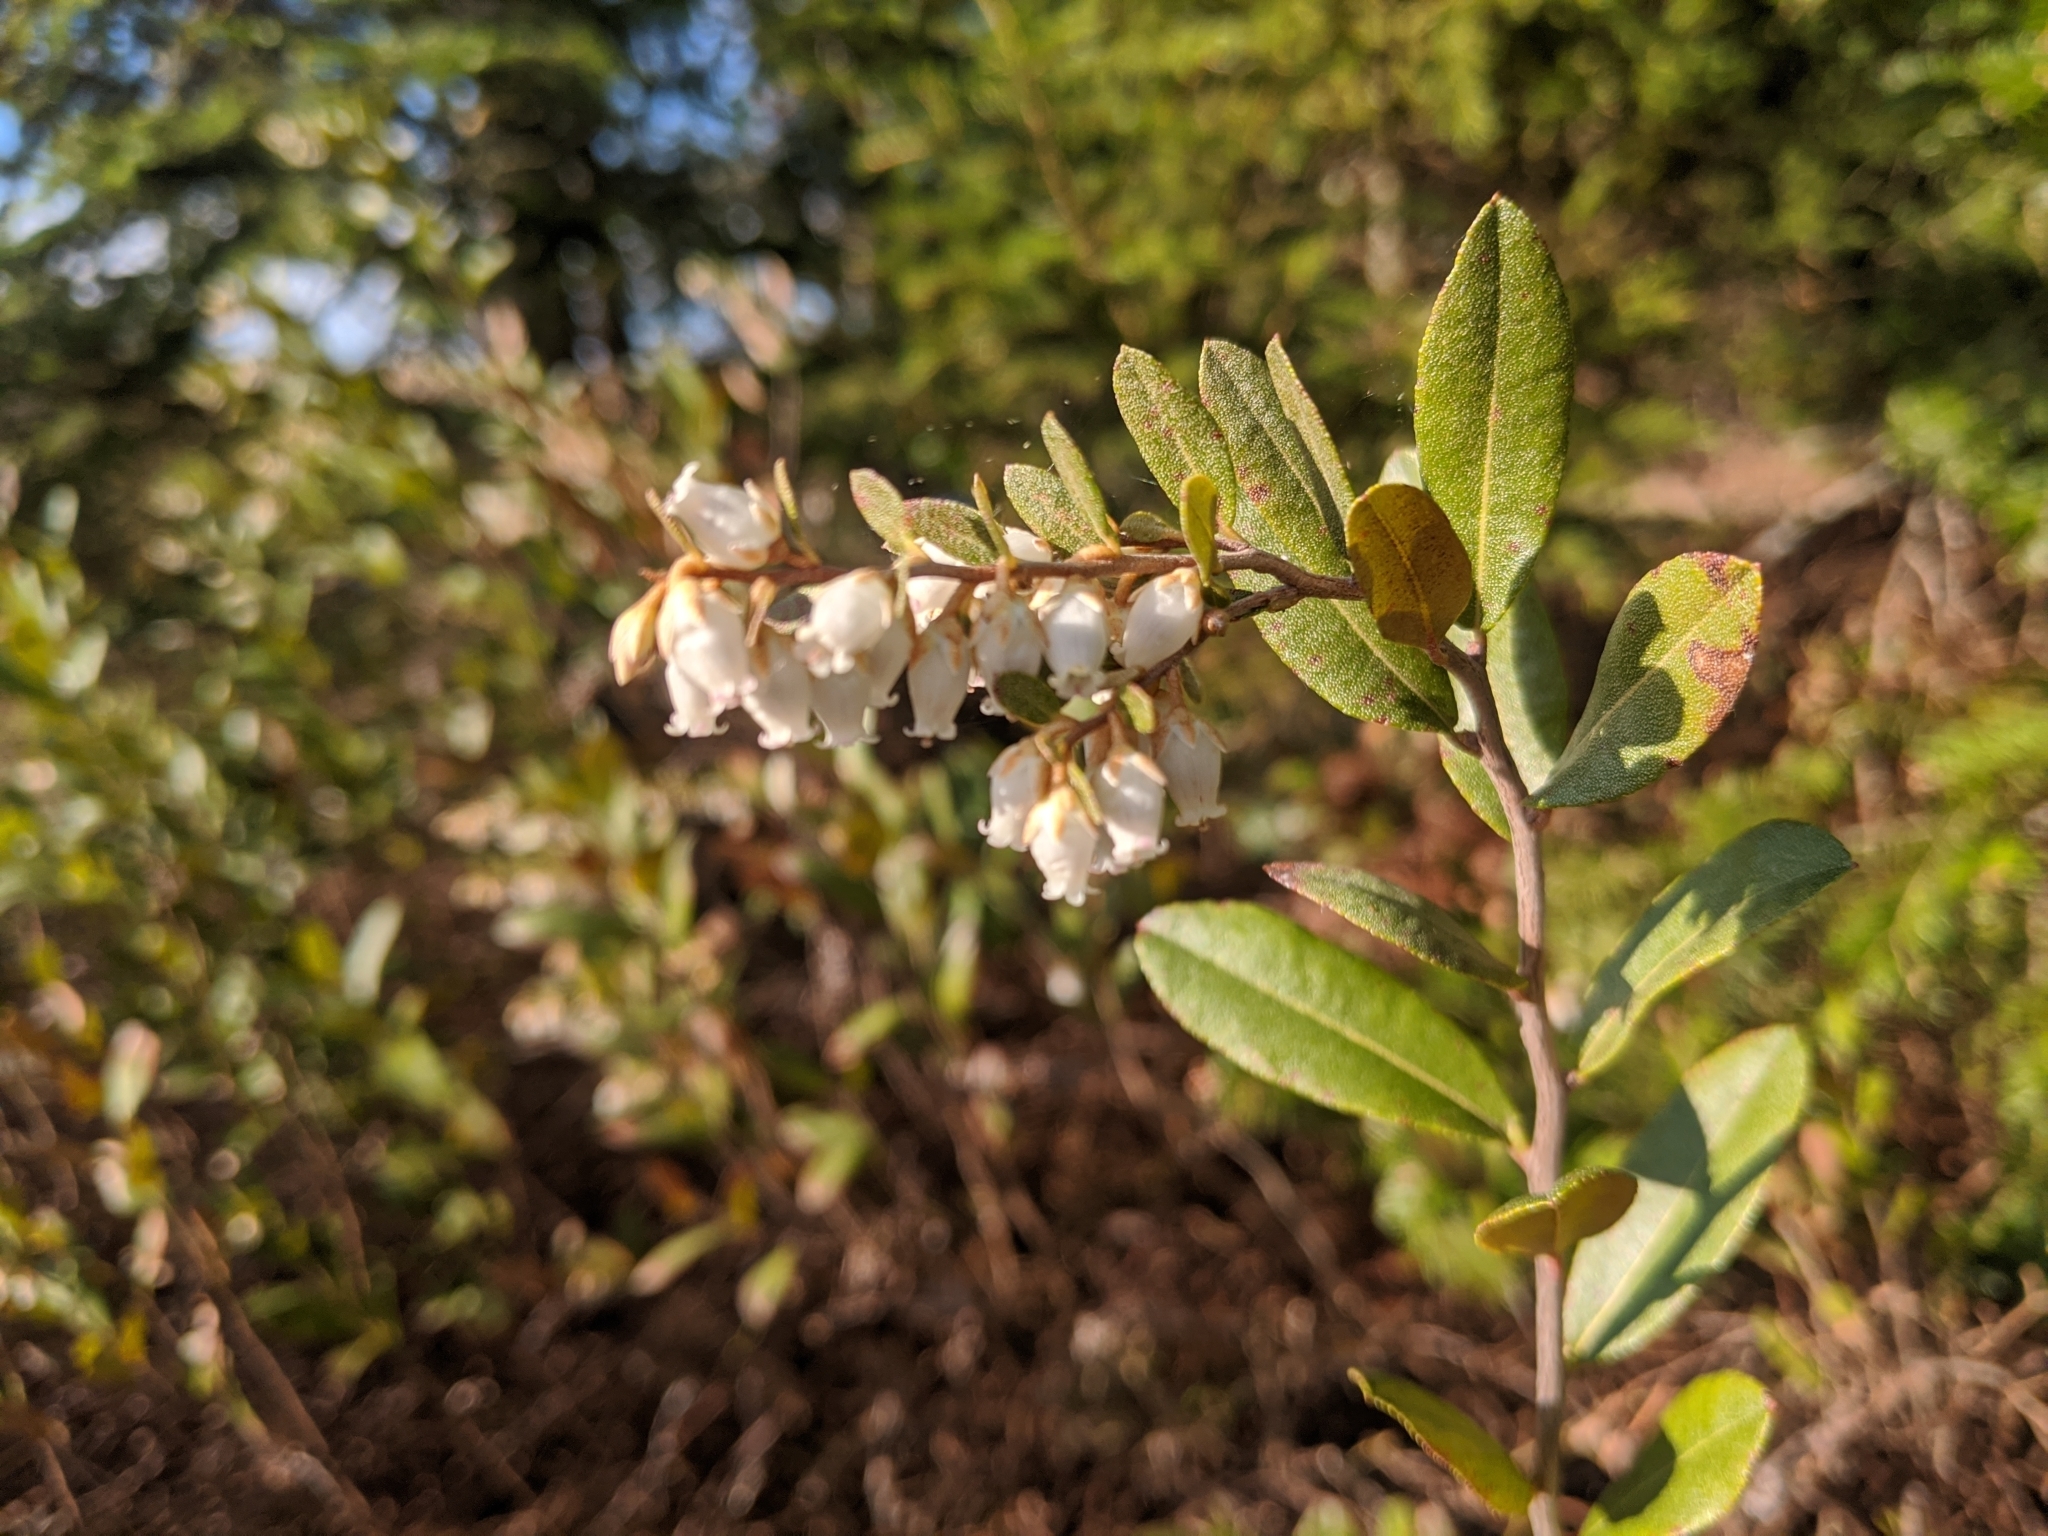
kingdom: Plantae
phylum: Tracheophyta
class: Magnoliopsida
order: Ericales
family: Ericaceae
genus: Chamaedaphne
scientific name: Chamaedaphne calyculata
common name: Leatherleaf
